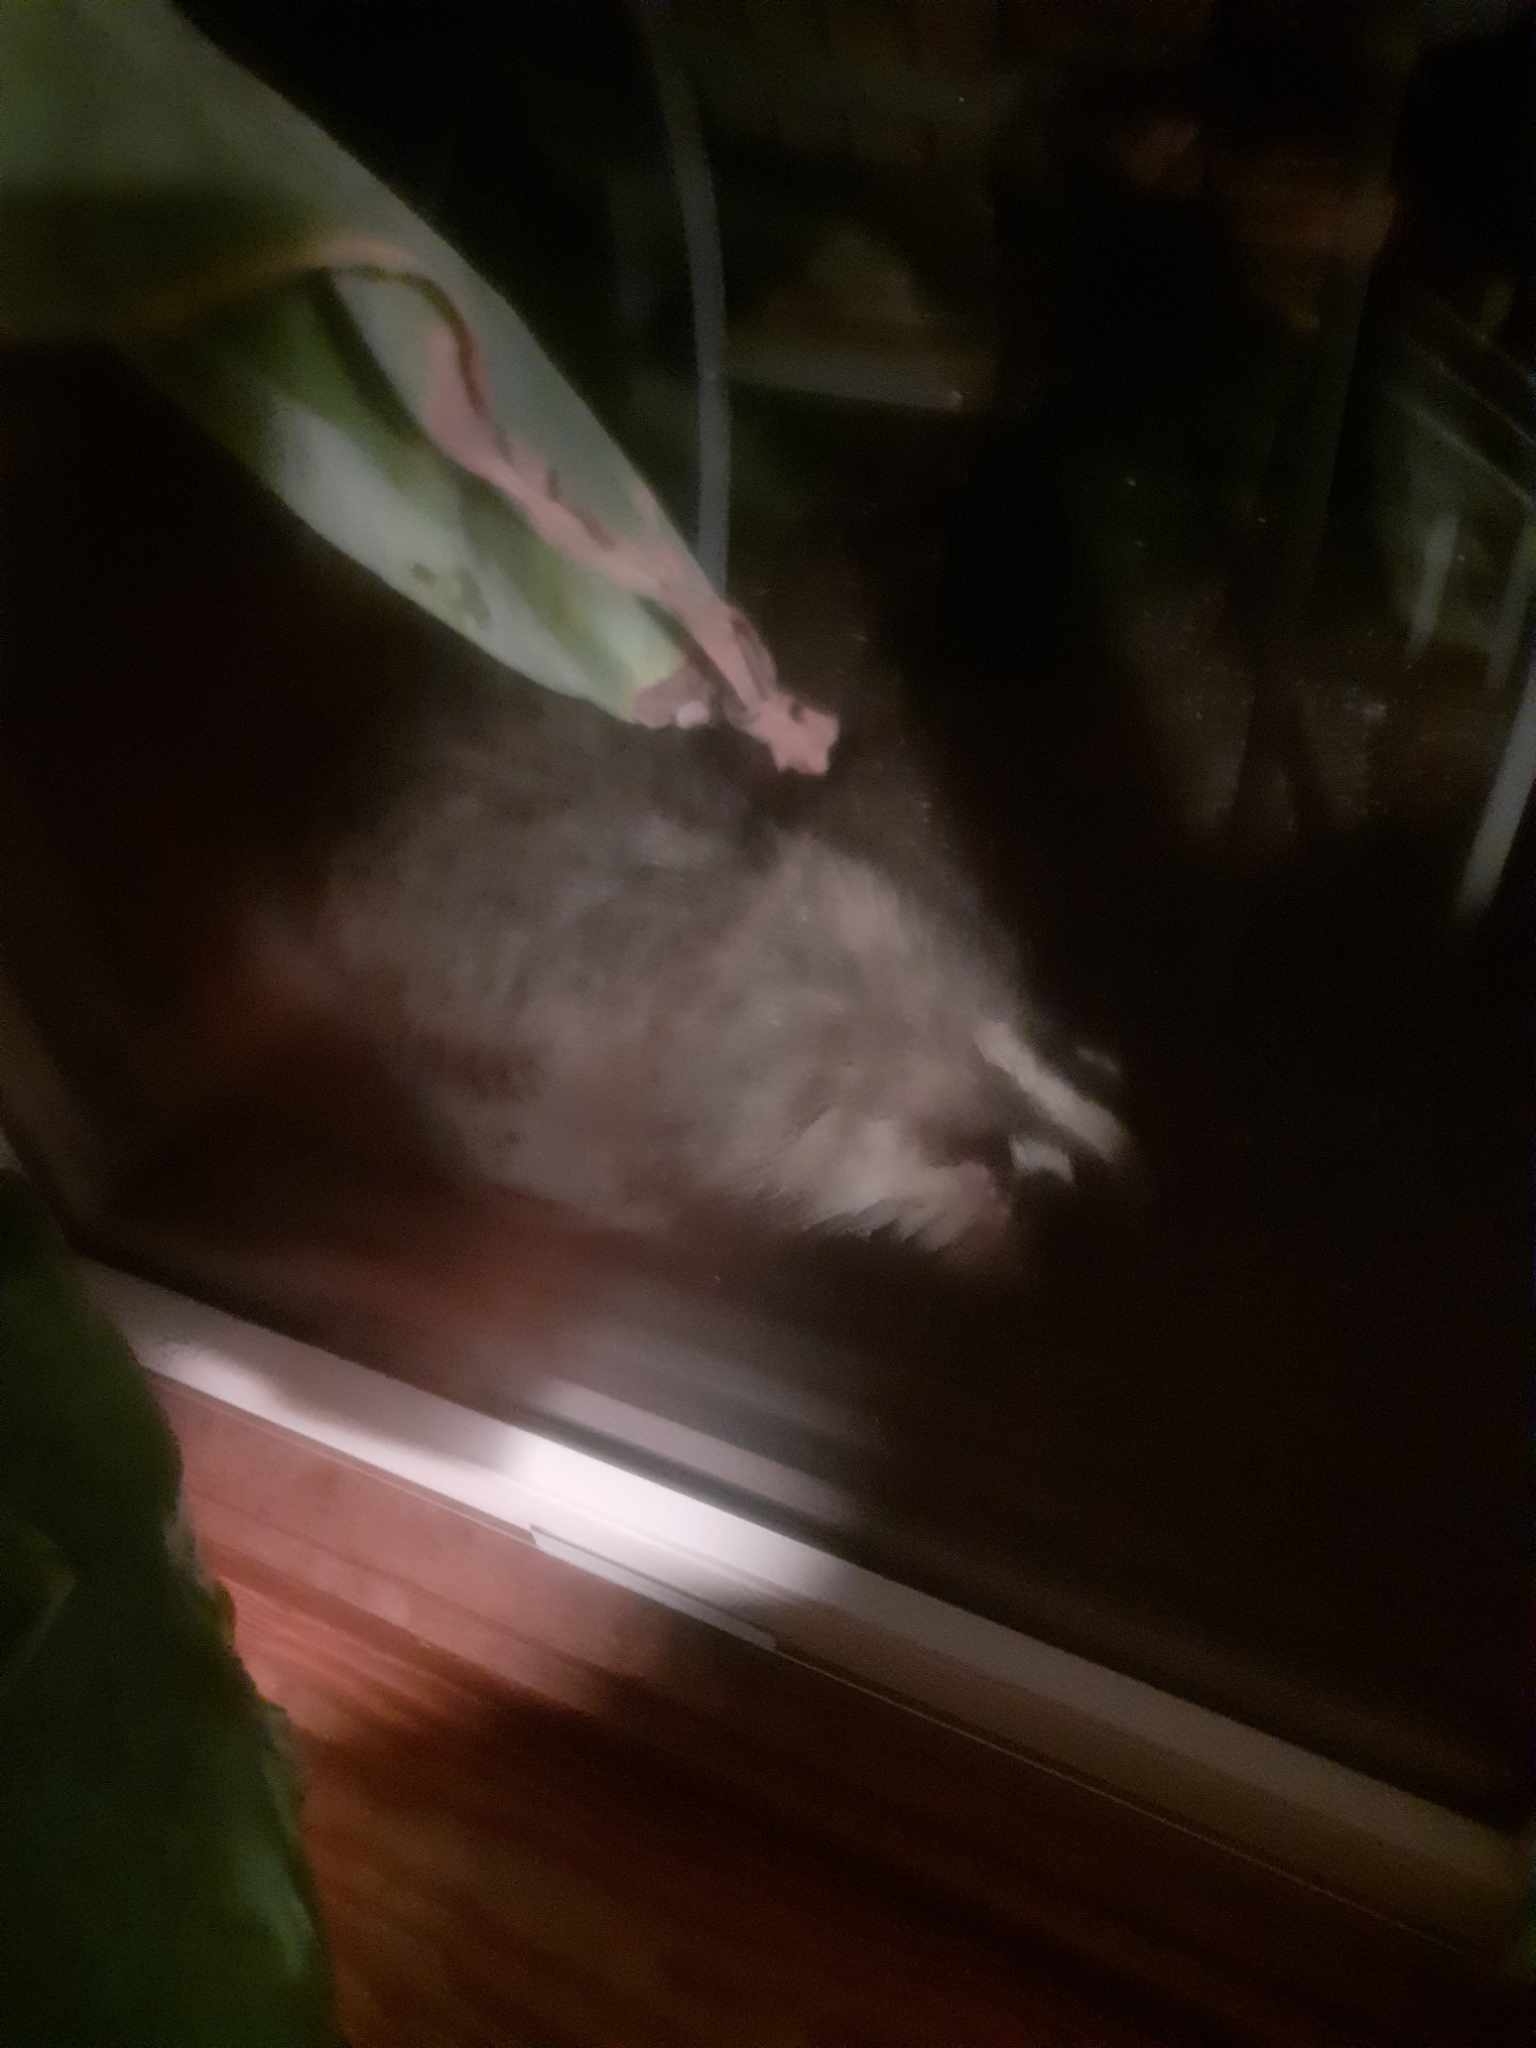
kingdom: Animalia
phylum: Chordata
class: Mammalia
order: Carnivora
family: Mustelidae
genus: Meles
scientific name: Meles meles
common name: Eurasian badger
